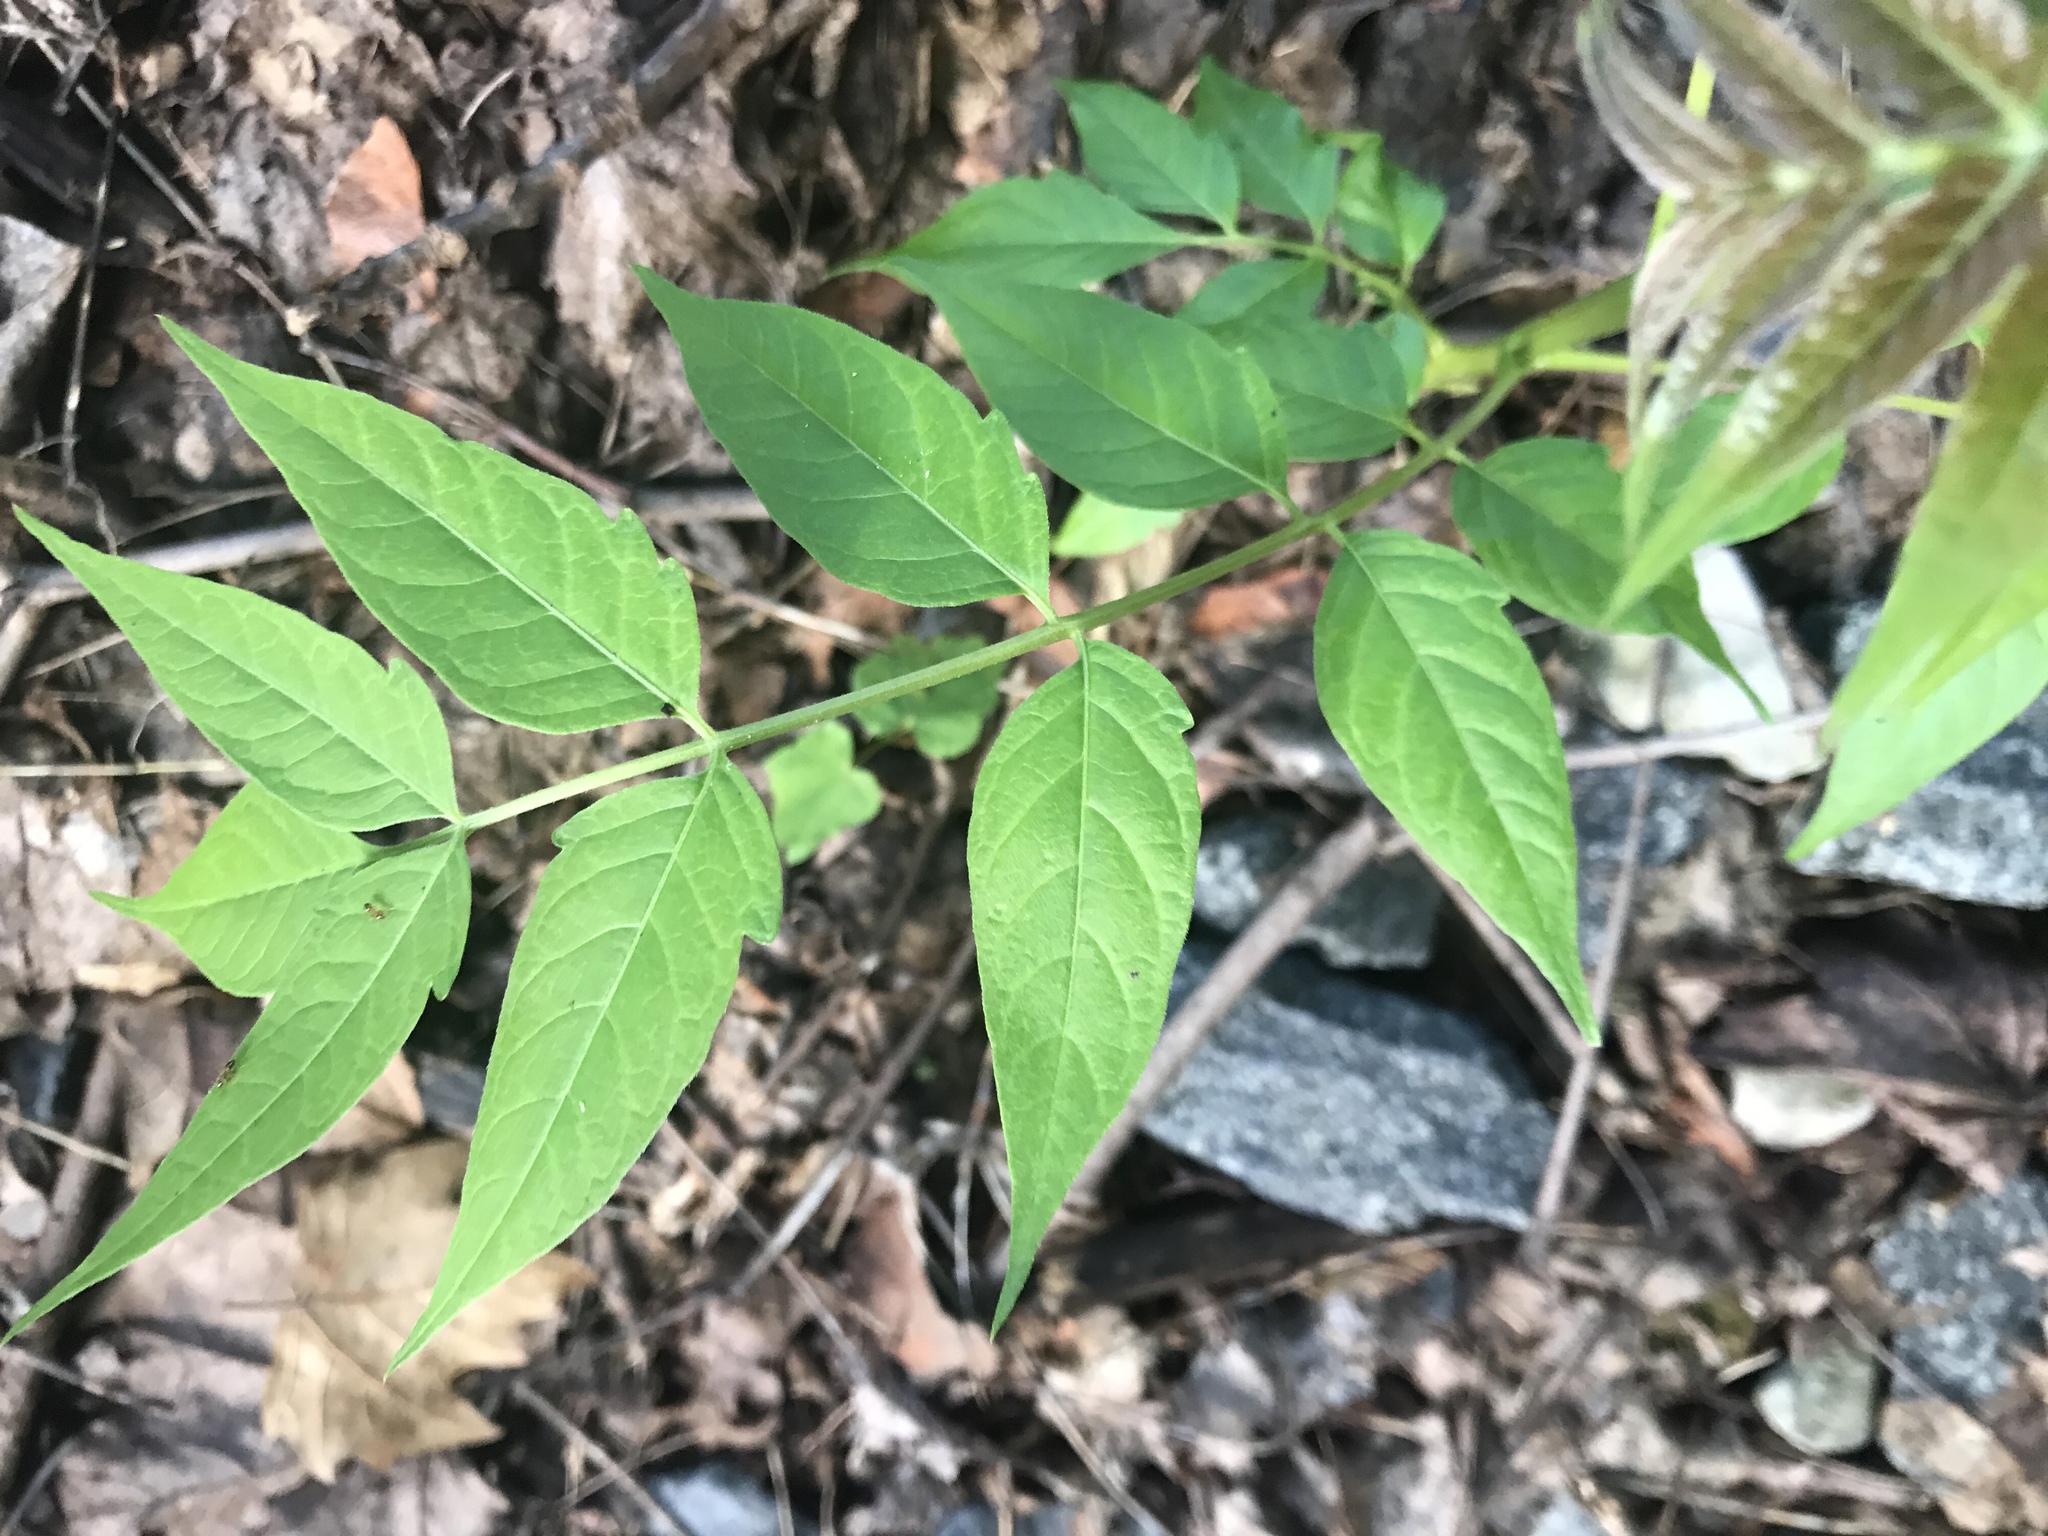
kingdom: Plantae
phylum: Tracheophyta
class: Magnoliopsida
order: Sapindales
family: Simaroubaceae
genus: Ailanthus
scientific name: Ailanthus altissima
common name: Tree-of-heaven
